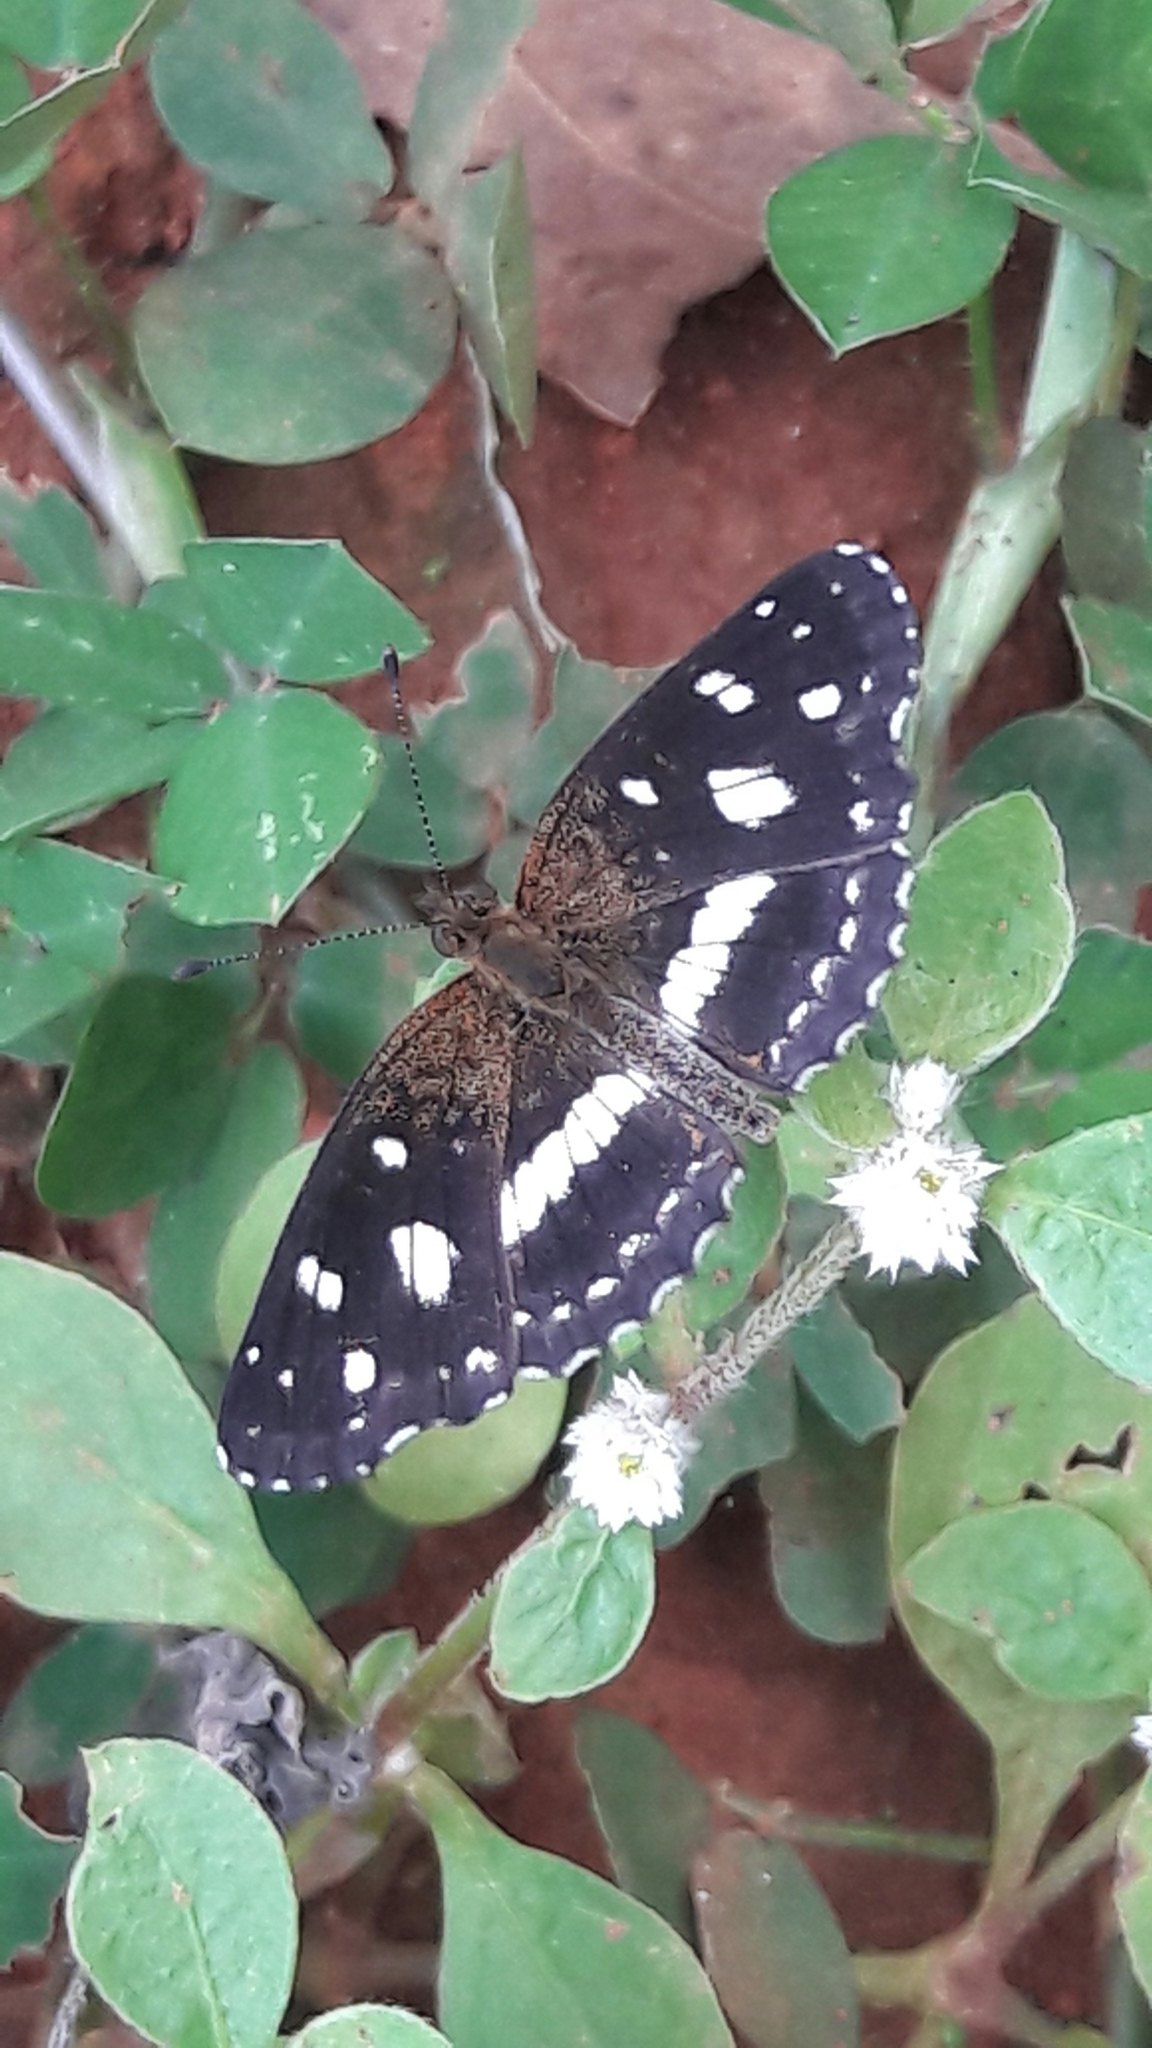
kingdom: Animalia
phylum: Arthropoda
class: Insecta
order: Lepidoptera
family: Nymphalidae
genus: Ortilia
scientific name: Ortilia ithra
